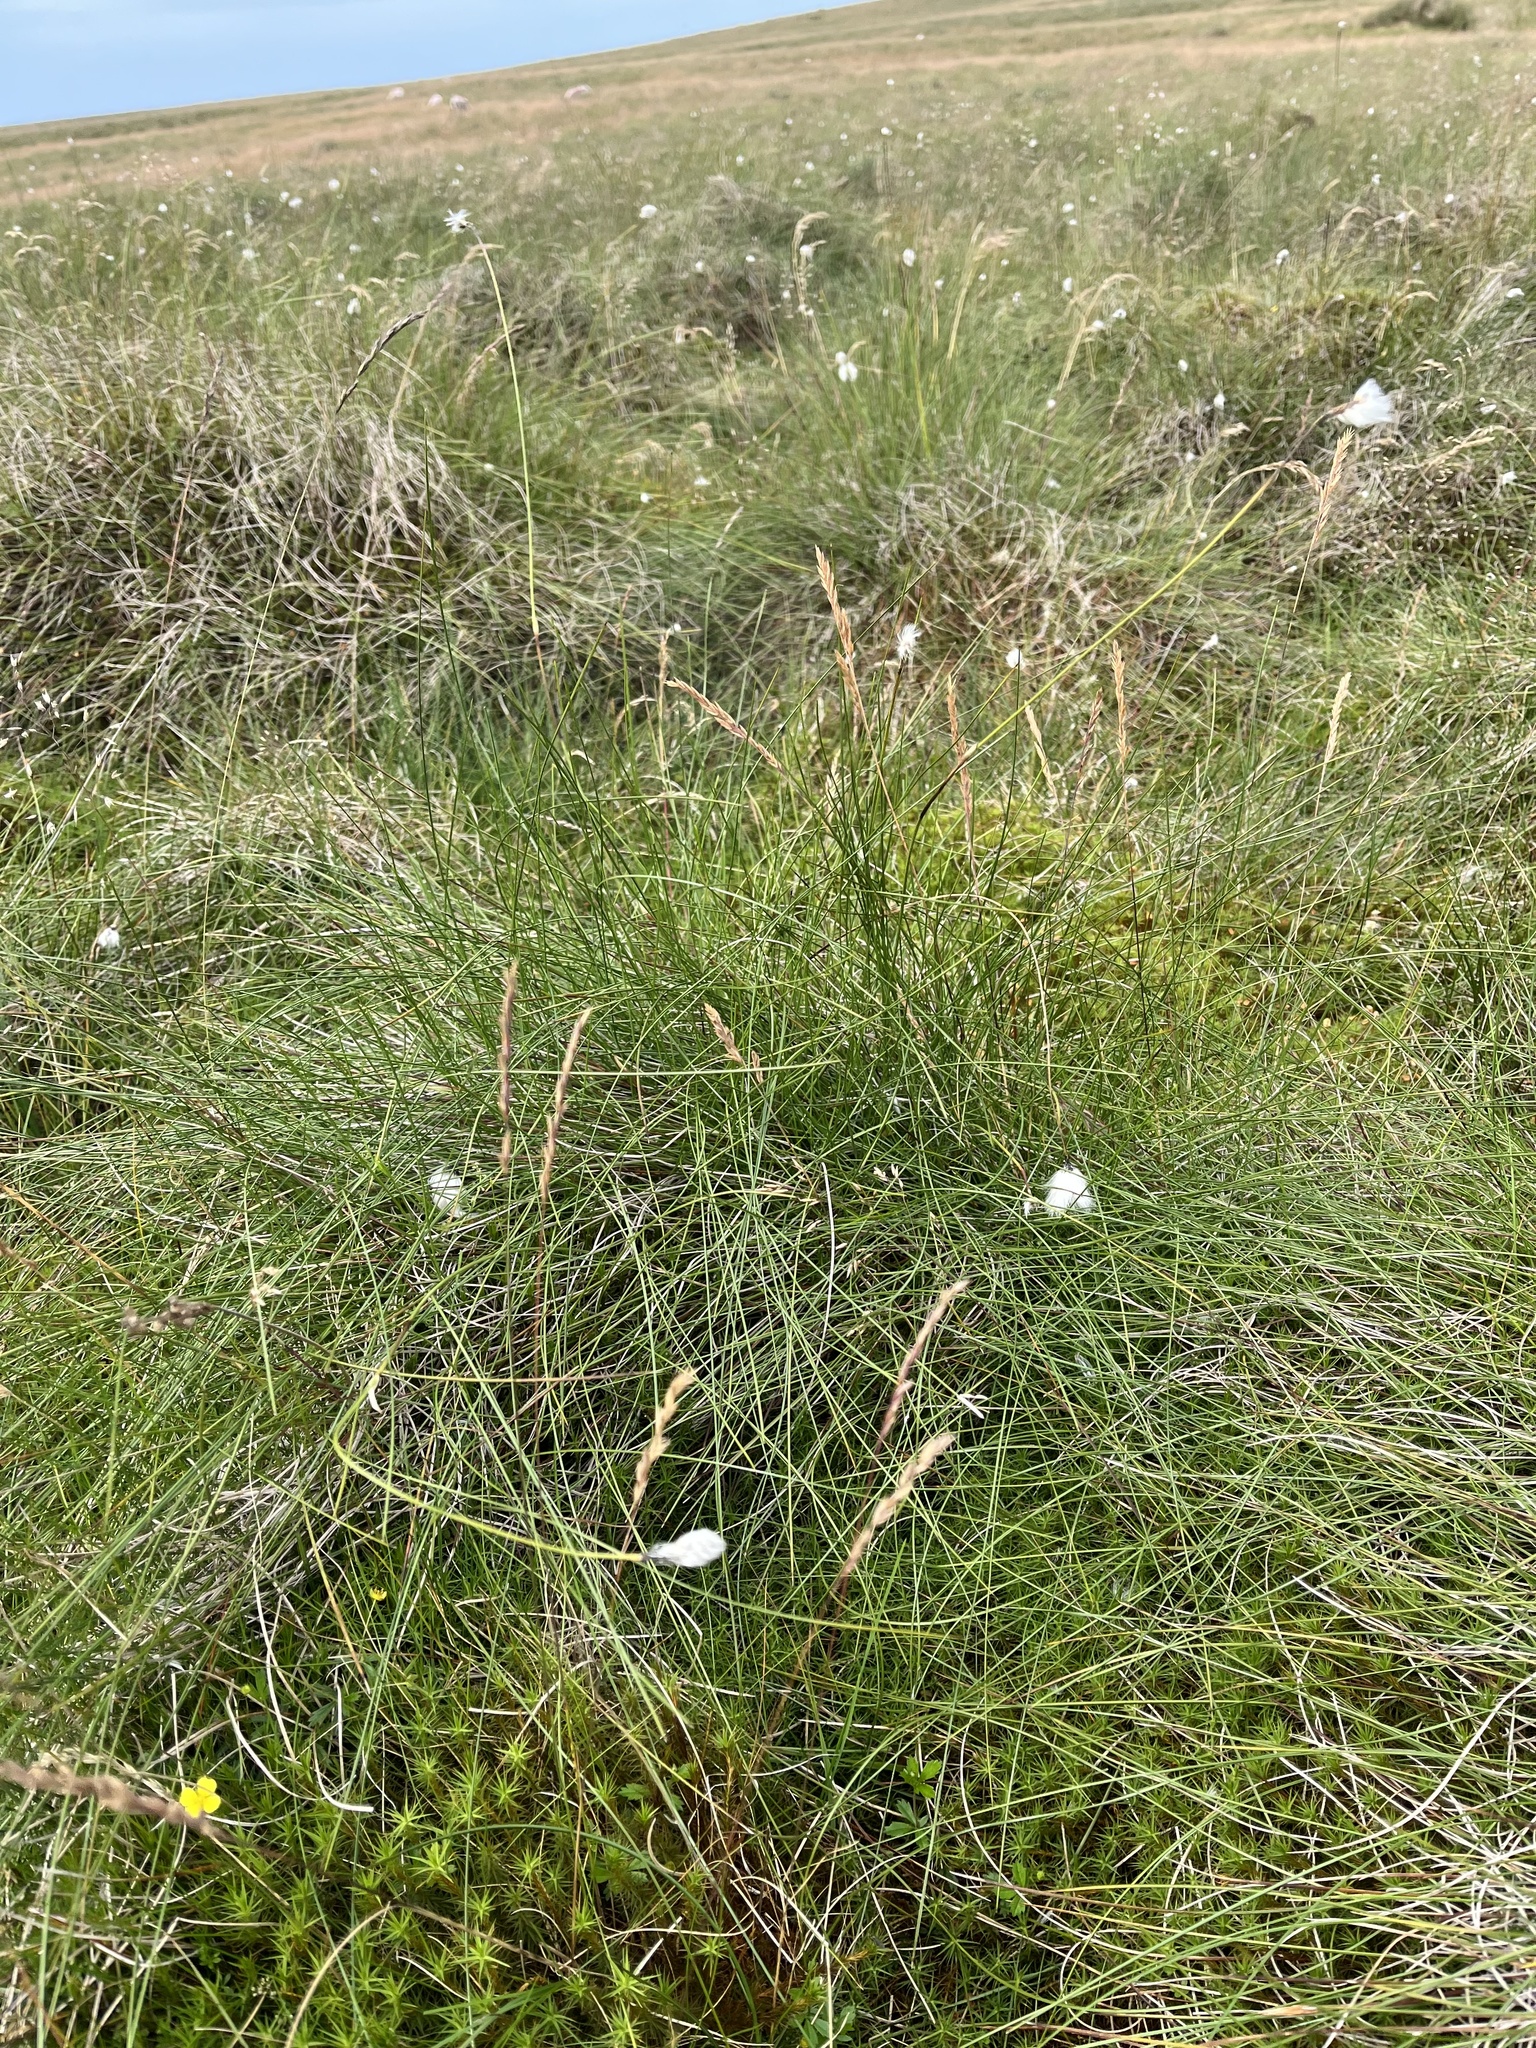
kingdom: Plantae
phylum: Tracheophyta
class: Liliopsida
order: Poales
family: Cyperaceae
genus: Eriophorum
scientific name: Eriophorum vaginatum
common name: Hare's-tail cottongrass
